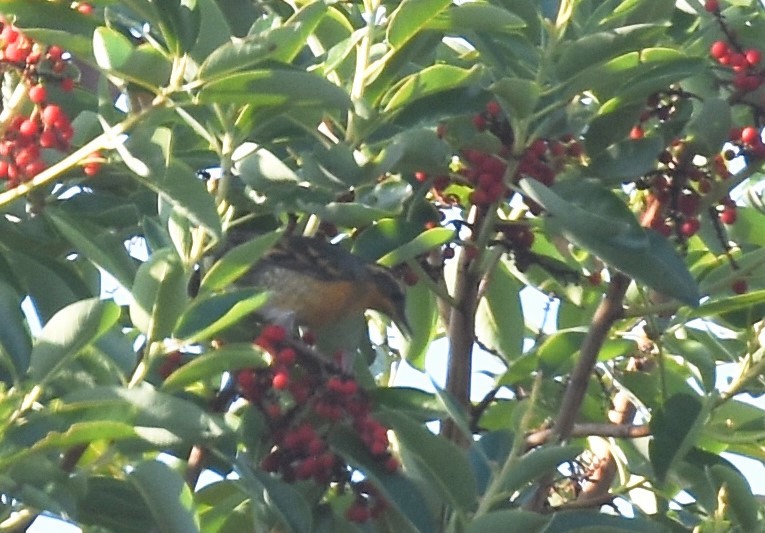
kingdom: Animalia
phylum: Chordata
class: Aves
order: Passeriformes
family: Turdidae
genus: Ixoreus
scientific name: Ixoreus naevius
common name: Varied thrush
